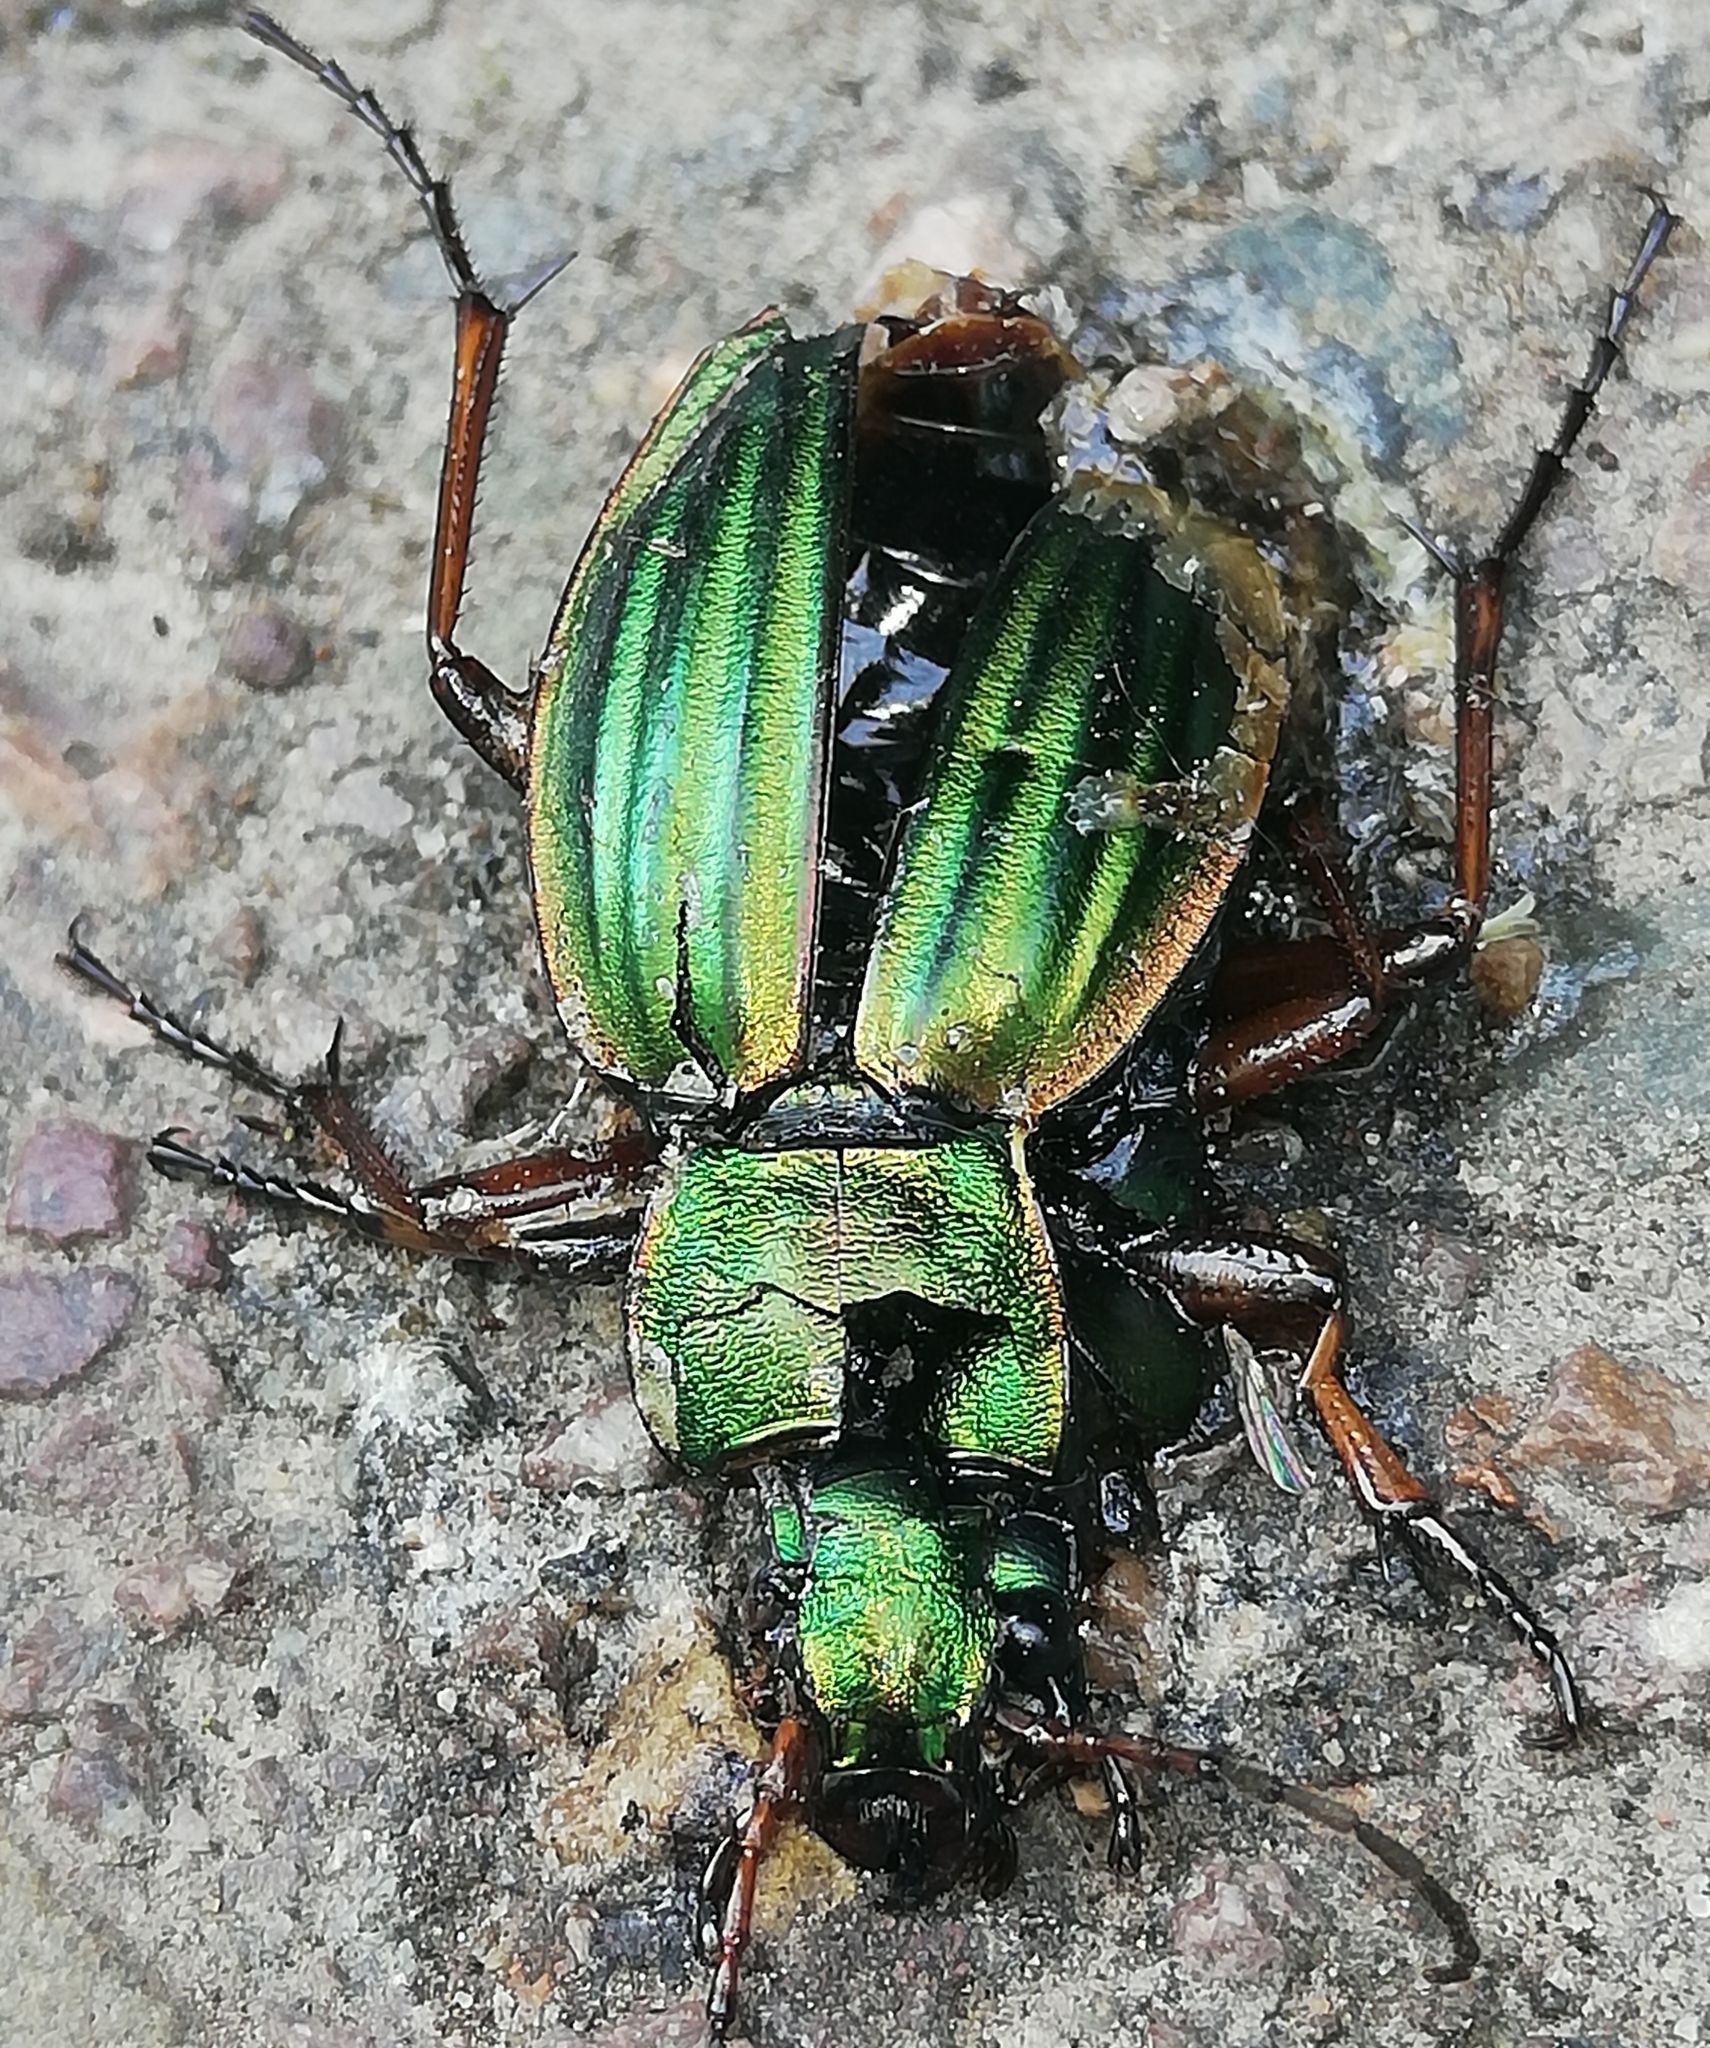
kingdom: Animalia
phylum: Arthropoda
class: Insecta
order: Coleoptera
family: Carabidae
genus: Carabus
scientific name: Carabus auratus
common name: Golden ground beetle
